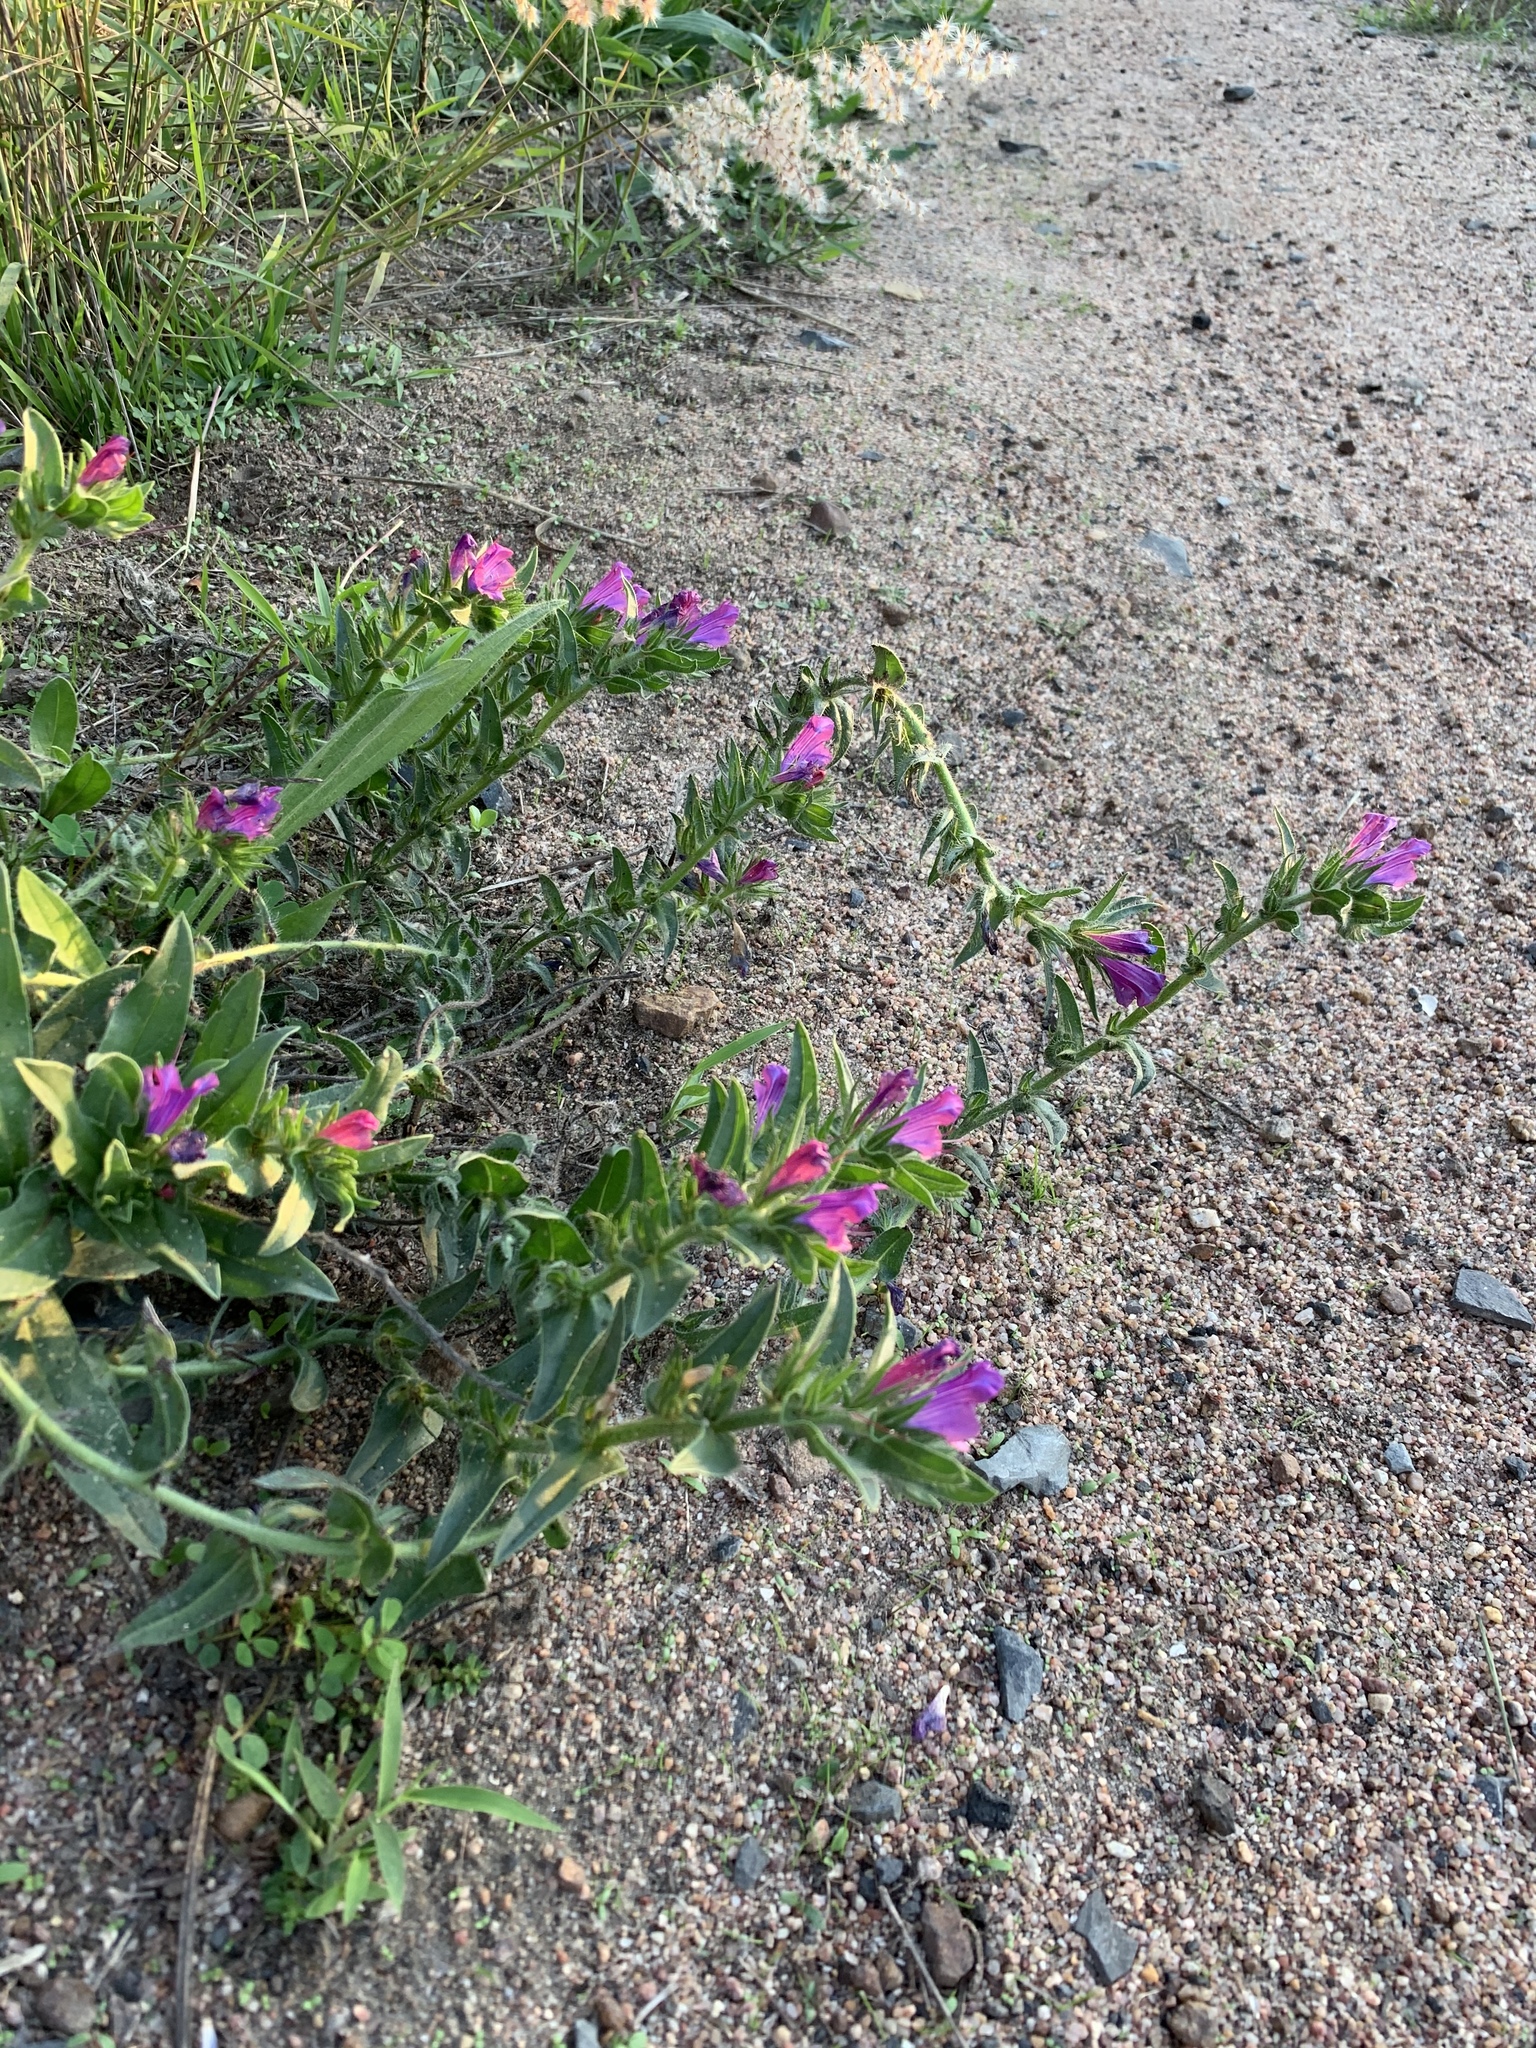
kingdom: Plantae
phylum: Tracheophyta
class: Magnoliopsida
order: Boraginales
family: Boraginaceae
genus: Echium
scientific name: Echium plantagineum
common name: Purple viper's-bugloss
